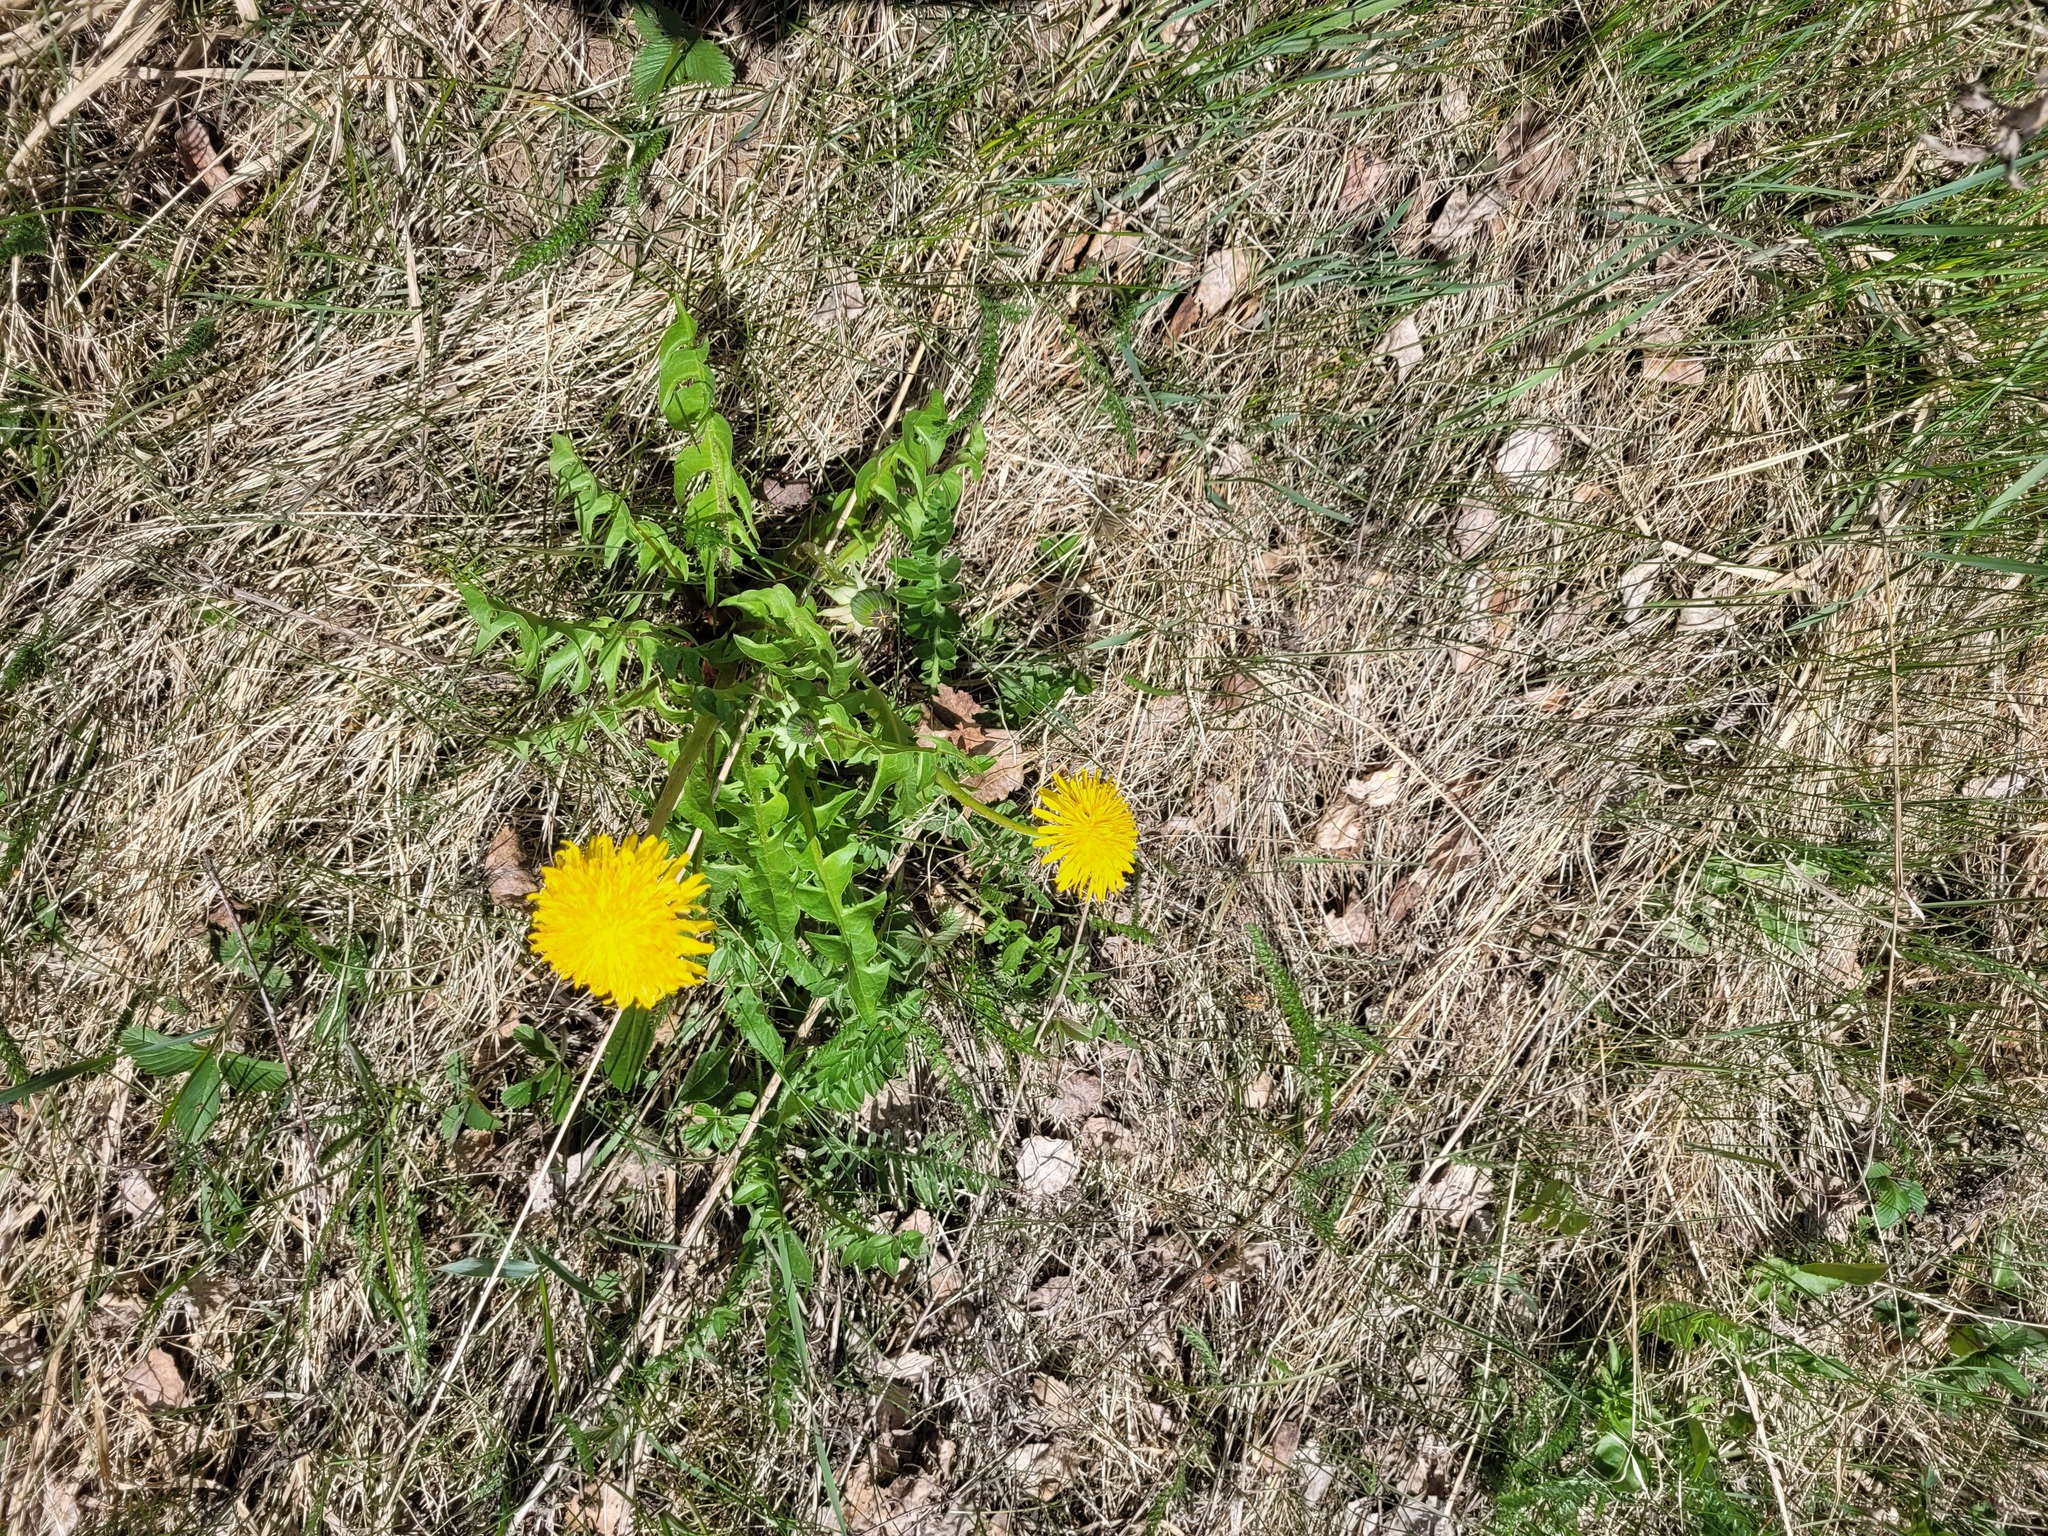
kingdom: Plantae
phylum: Tracheophyta
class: Magnoliopsida
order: Asterales
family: Asteraceae
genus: Taraxacum
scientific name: Taraxacum officinale
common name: Common dandelion
